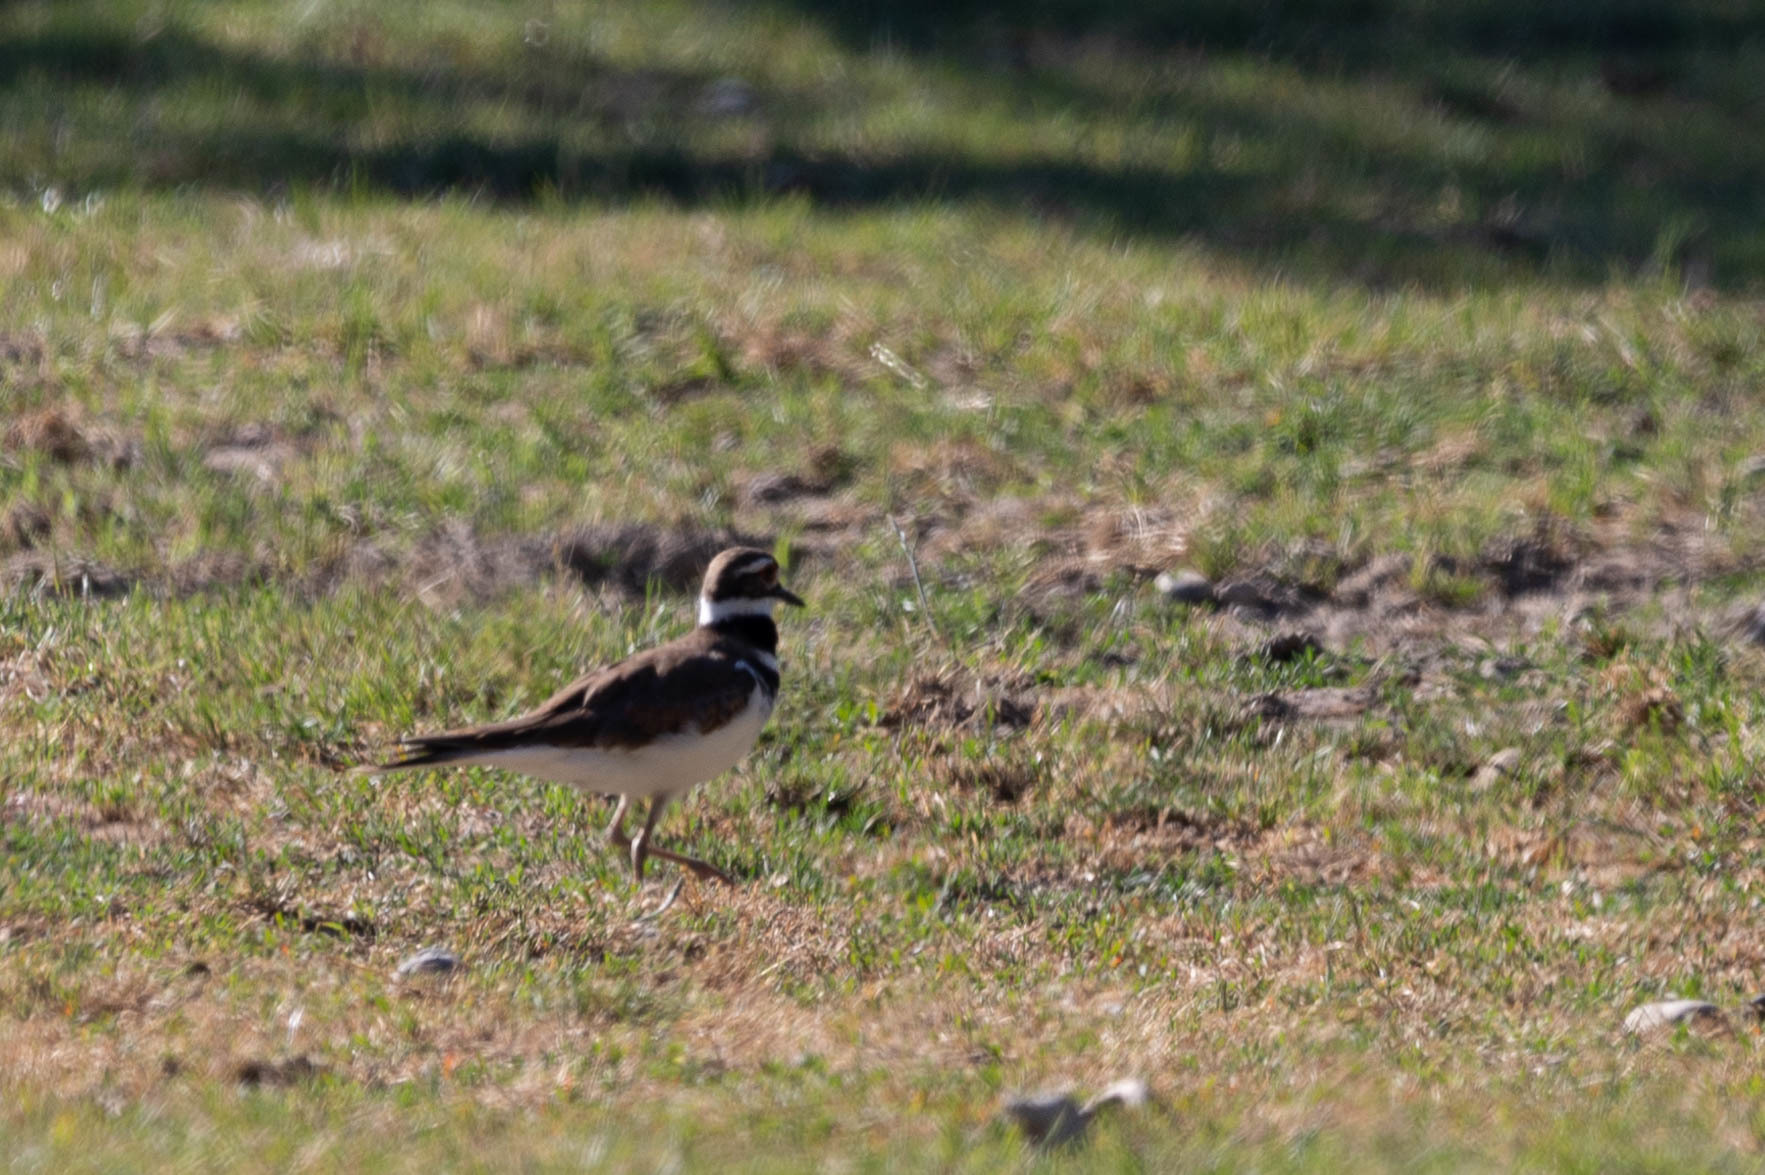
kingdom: Animalia
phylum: Chordata
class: Aves
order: Charadriiformes
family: Charadriidae
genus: Charadrius
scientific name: Charadrius vociferus
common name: Killdeer
